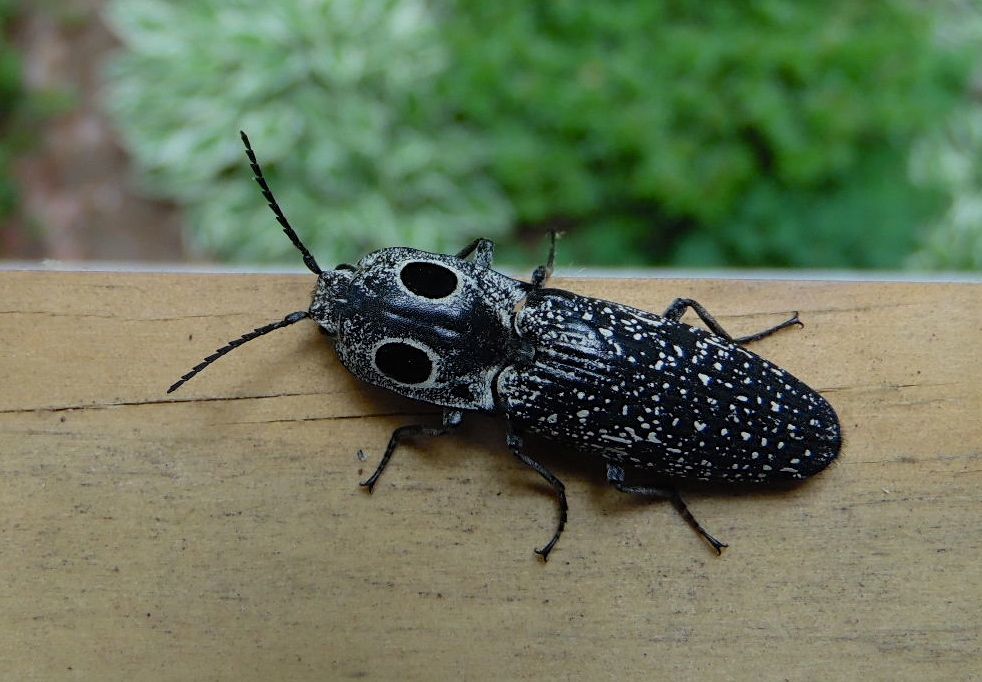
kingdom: Animalia
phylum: Arthropoda
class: Insecta
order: Coleoptera
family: Elateridae
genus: Alaus
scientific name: Alaus oculatus
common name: Eastern eyed click beetle
